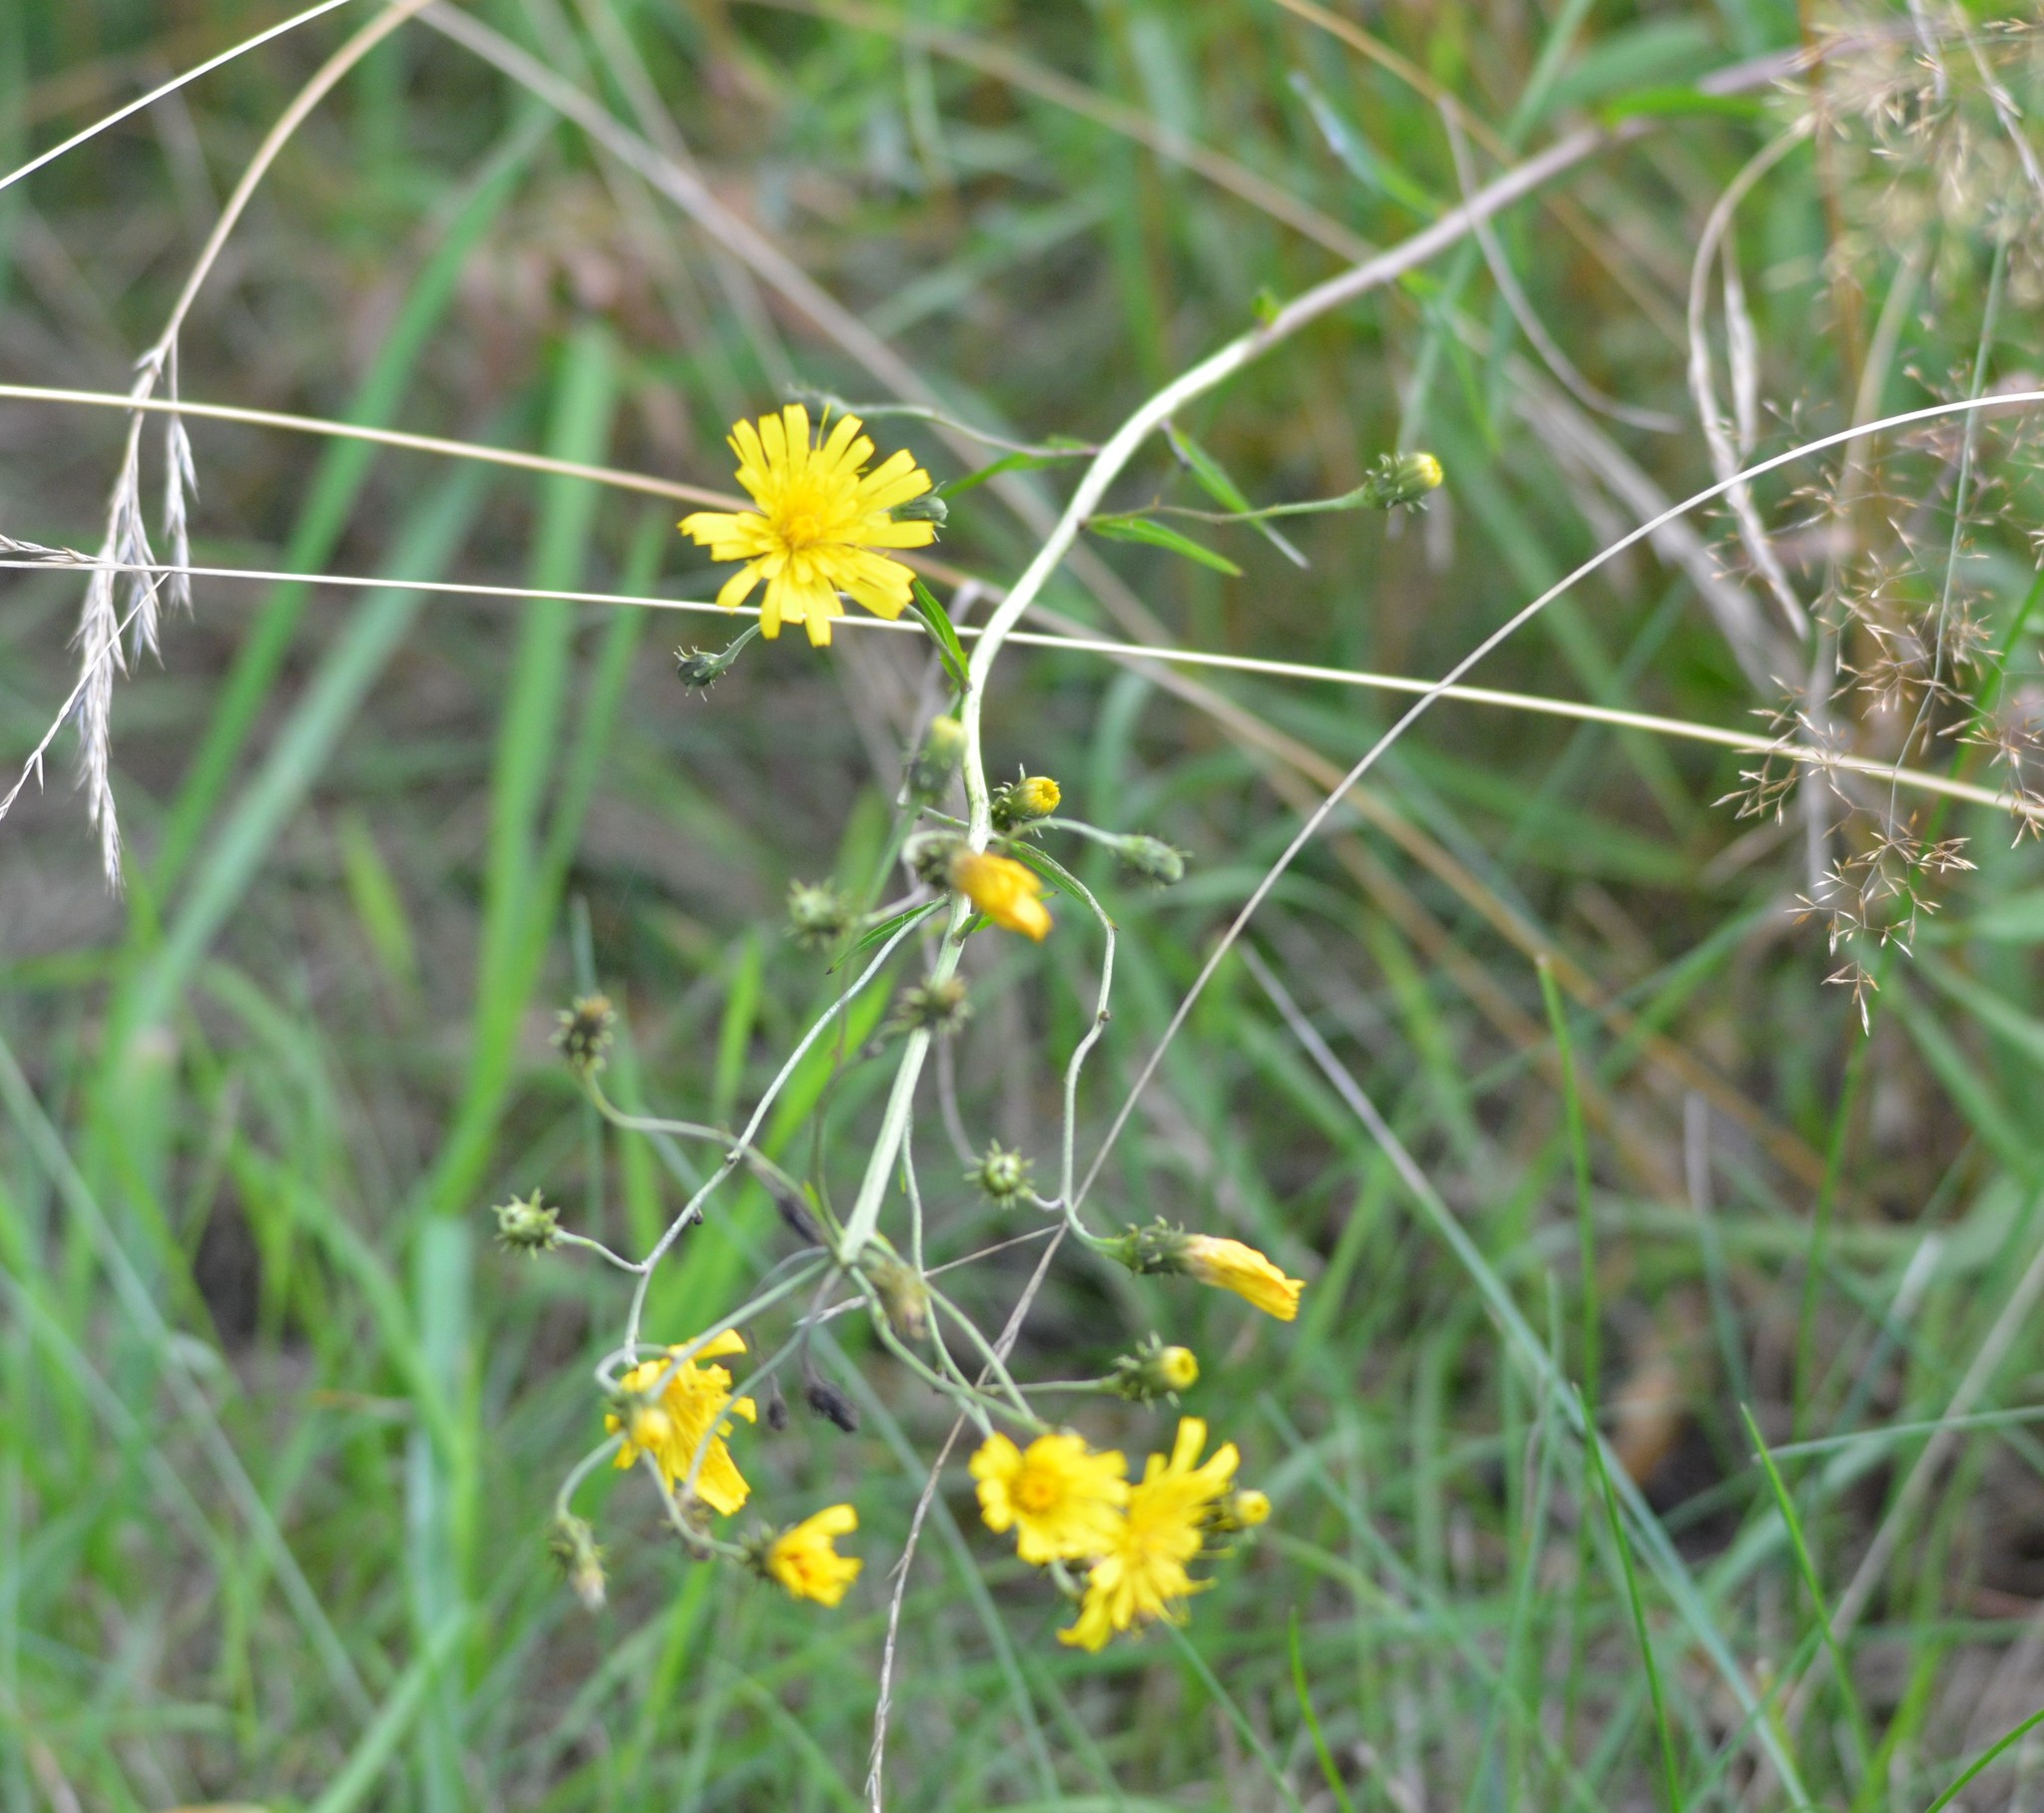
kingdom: Plantae
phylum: Tracheophyta
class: Magnoliopsida
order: Asterales
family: Asteraceae
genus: Hieracium
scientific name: Hieracium umbellatum
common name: Northern hawkweed
